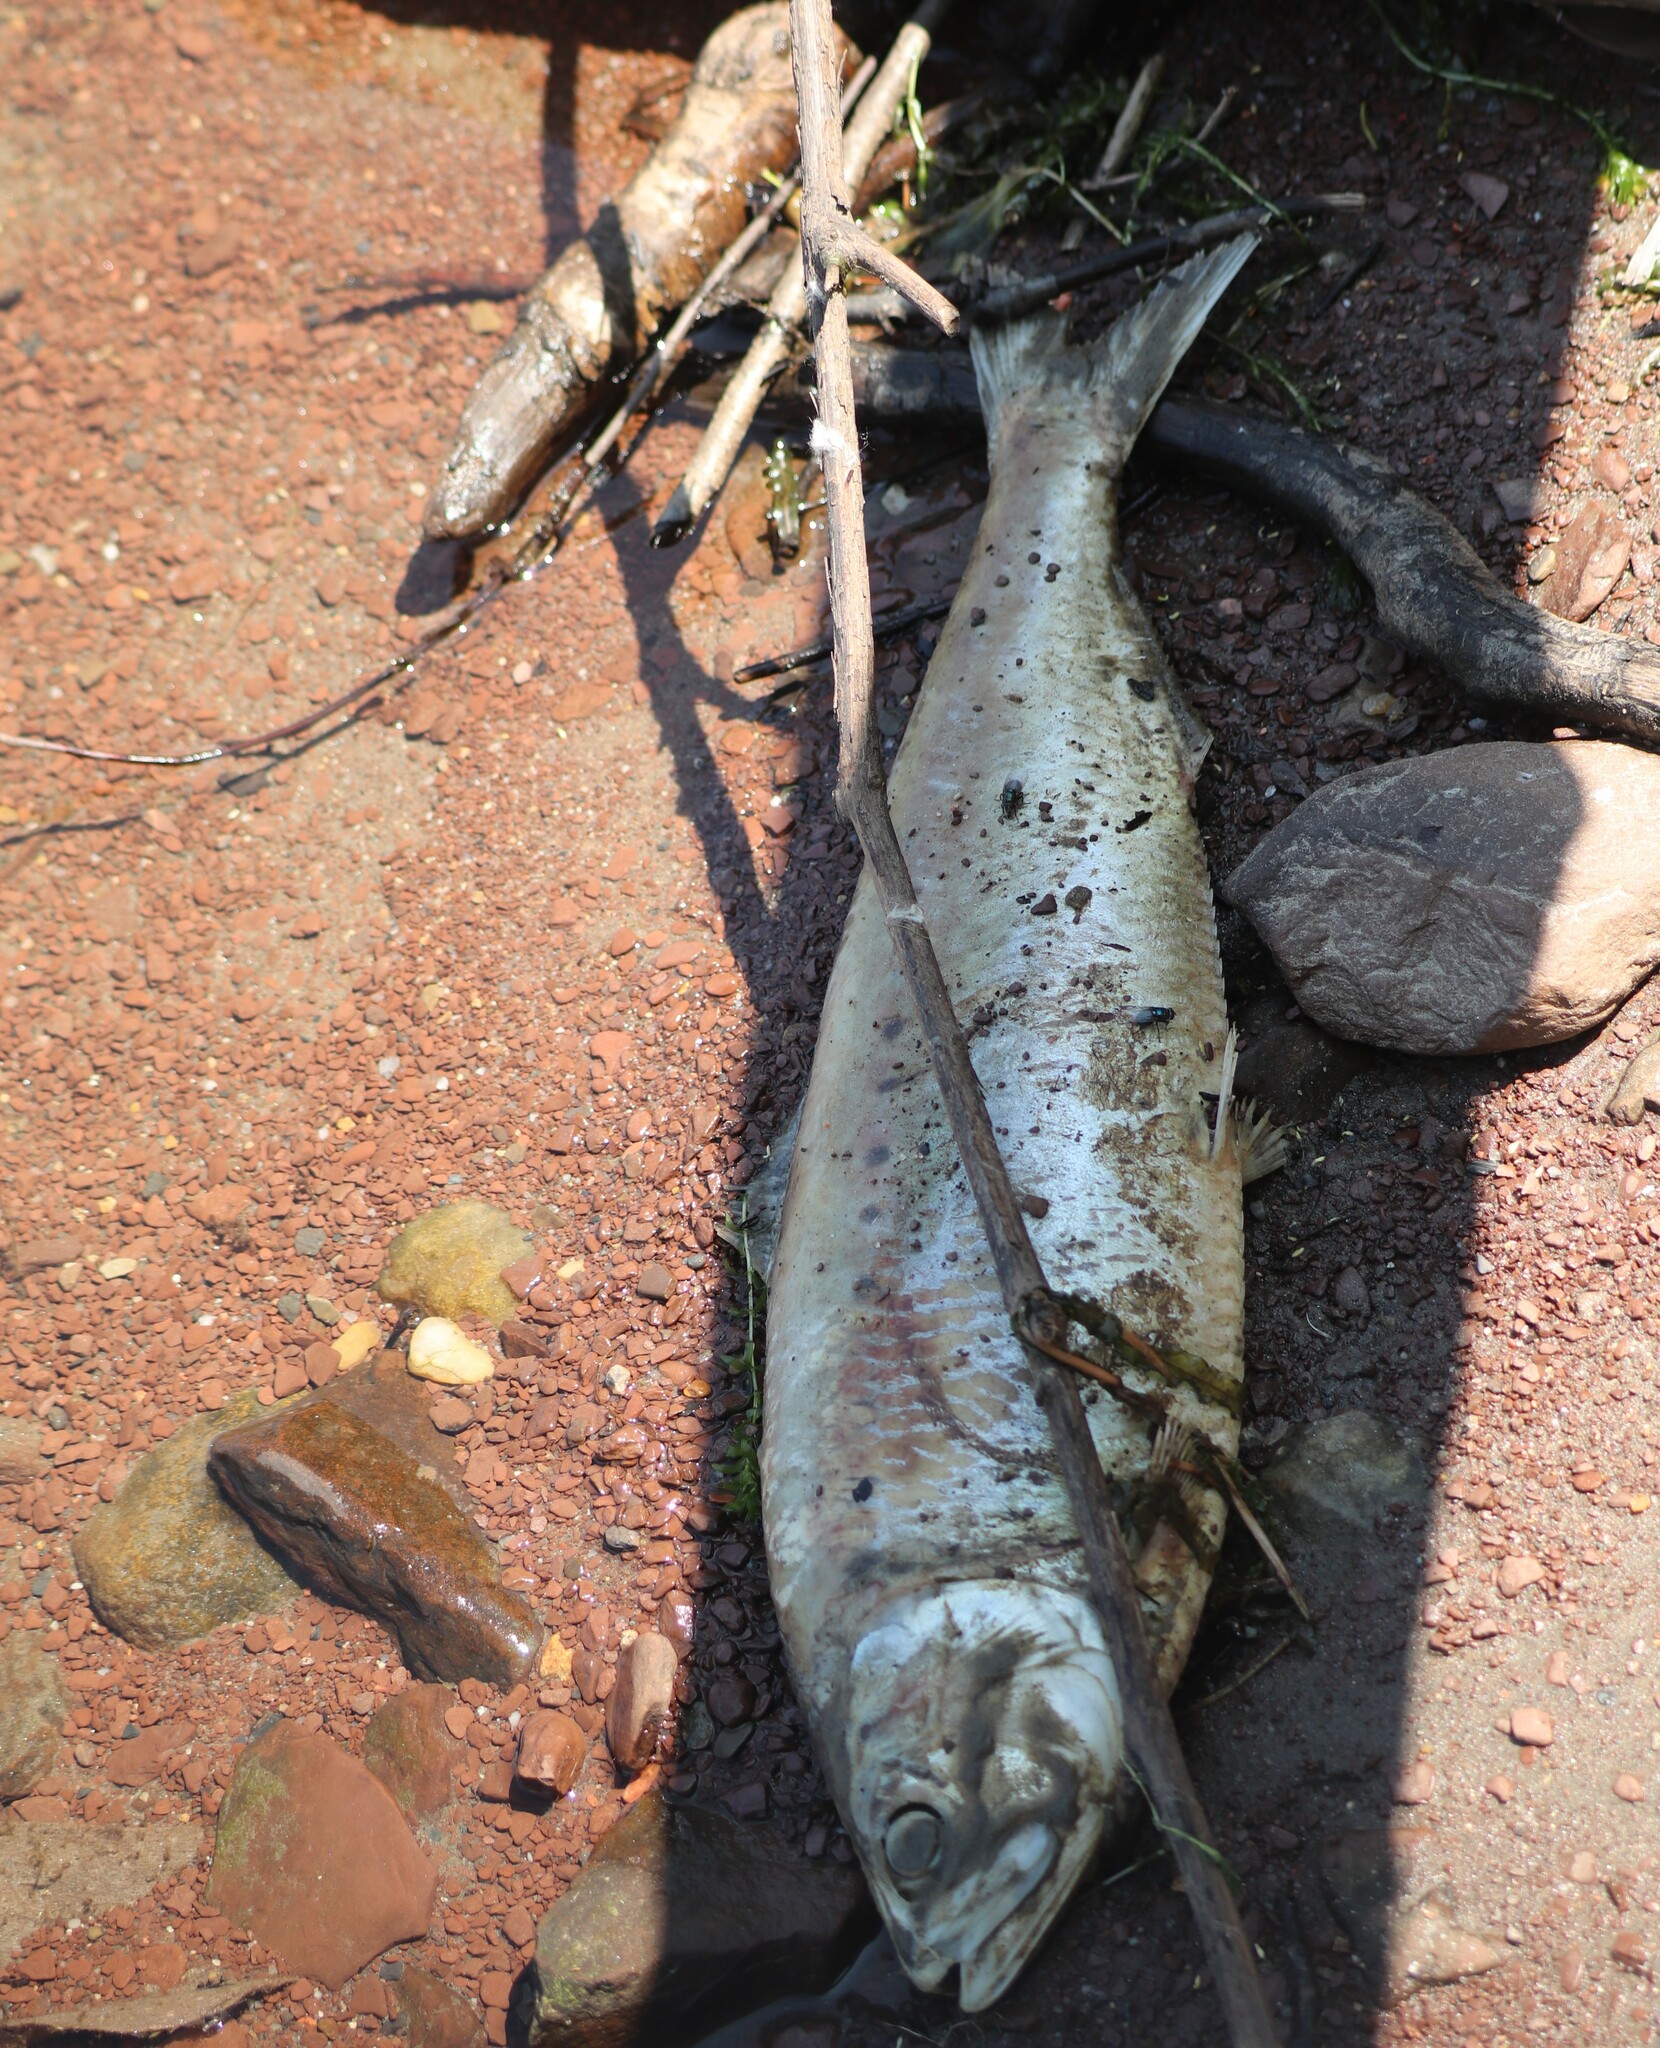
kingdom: Animalia
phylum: Chordata
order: Clupeiformes
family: Clupeidae
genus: Alosa
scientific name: Alosa sapidissima
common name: American shad
